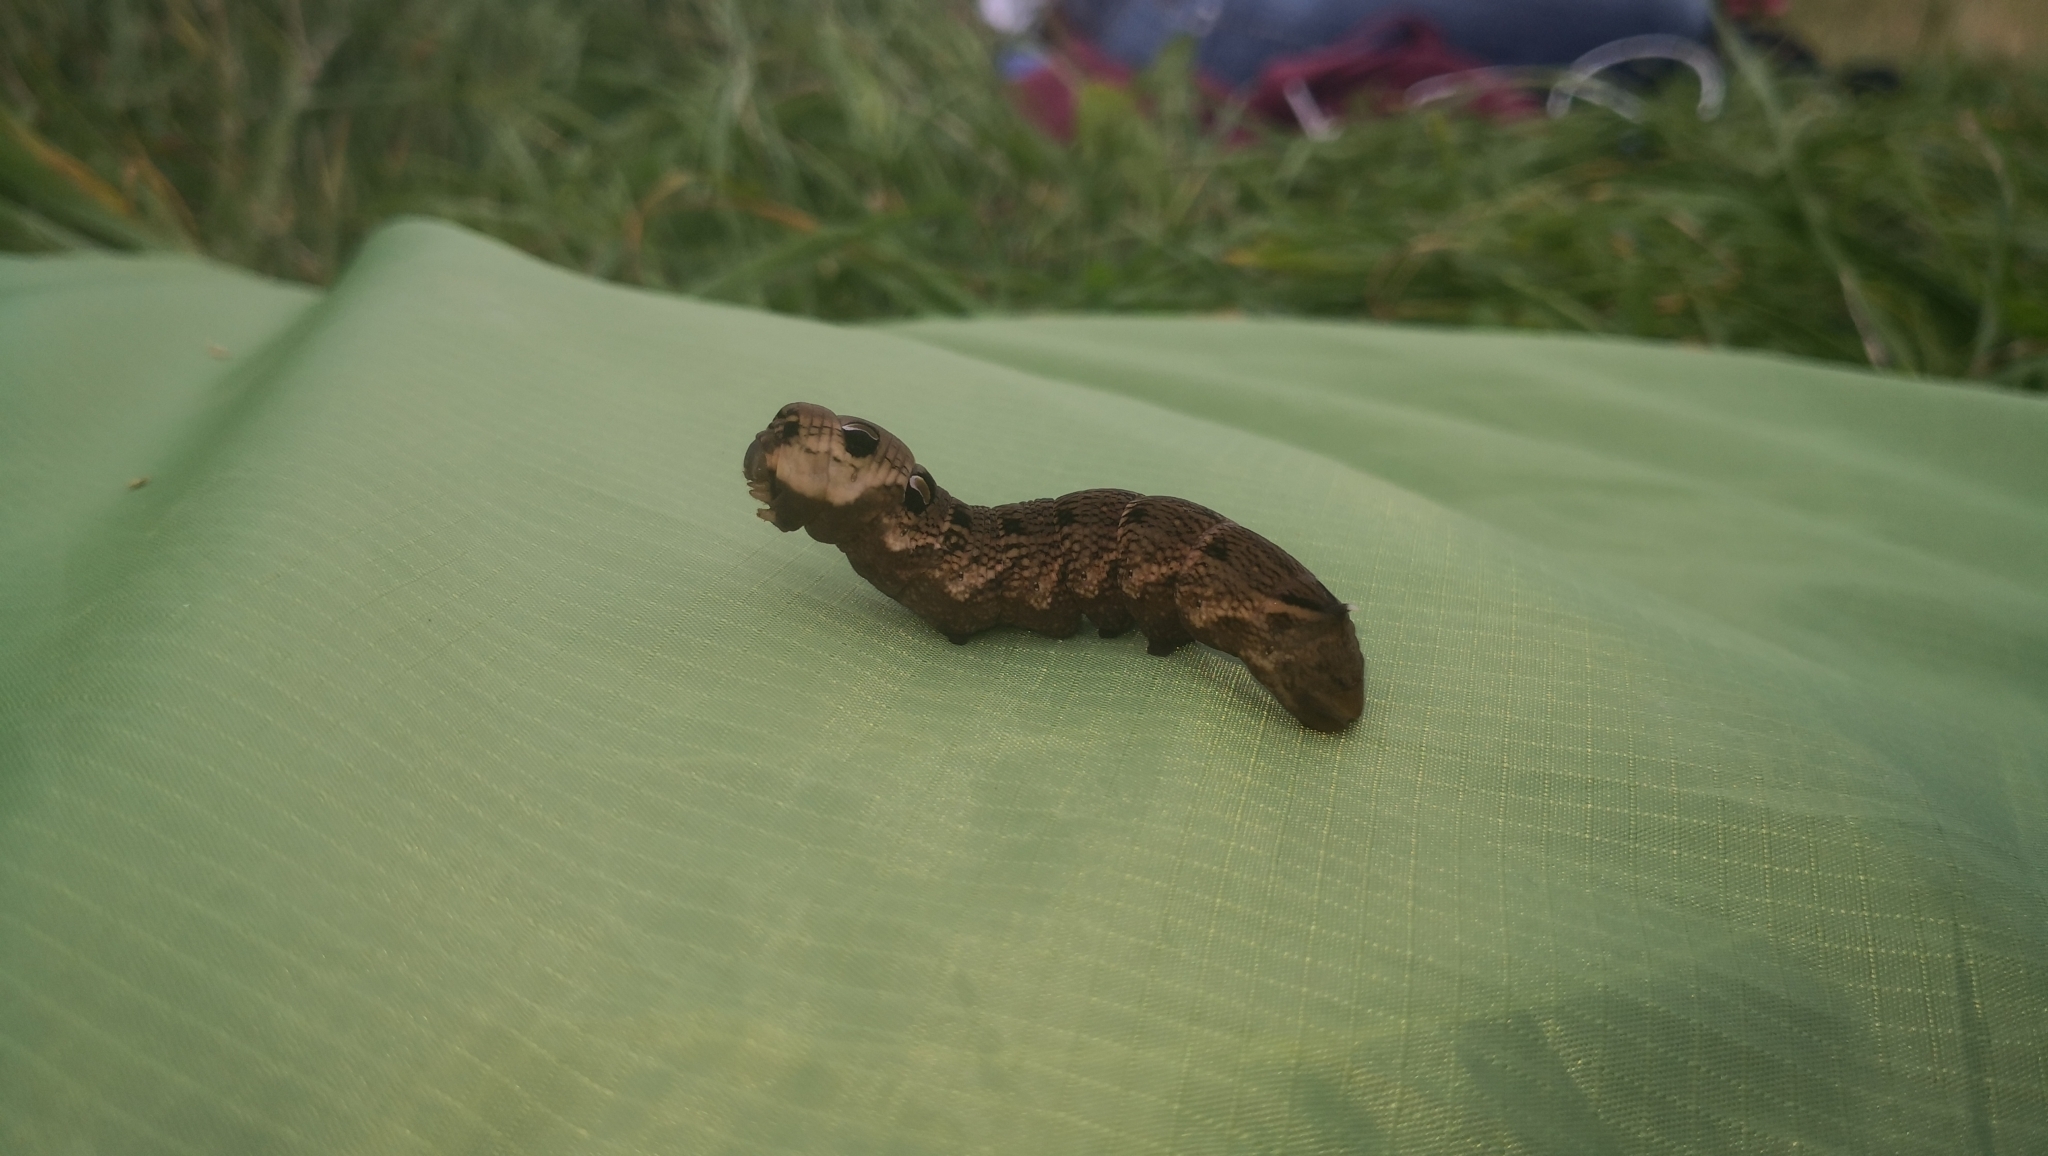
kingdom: Animalia
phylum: Arthropoda
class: Insecta
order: Lepidoptera
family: Sphingidae
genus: Deilephila
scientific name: Deilephila elpenor
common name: Elephant hawk-moth
